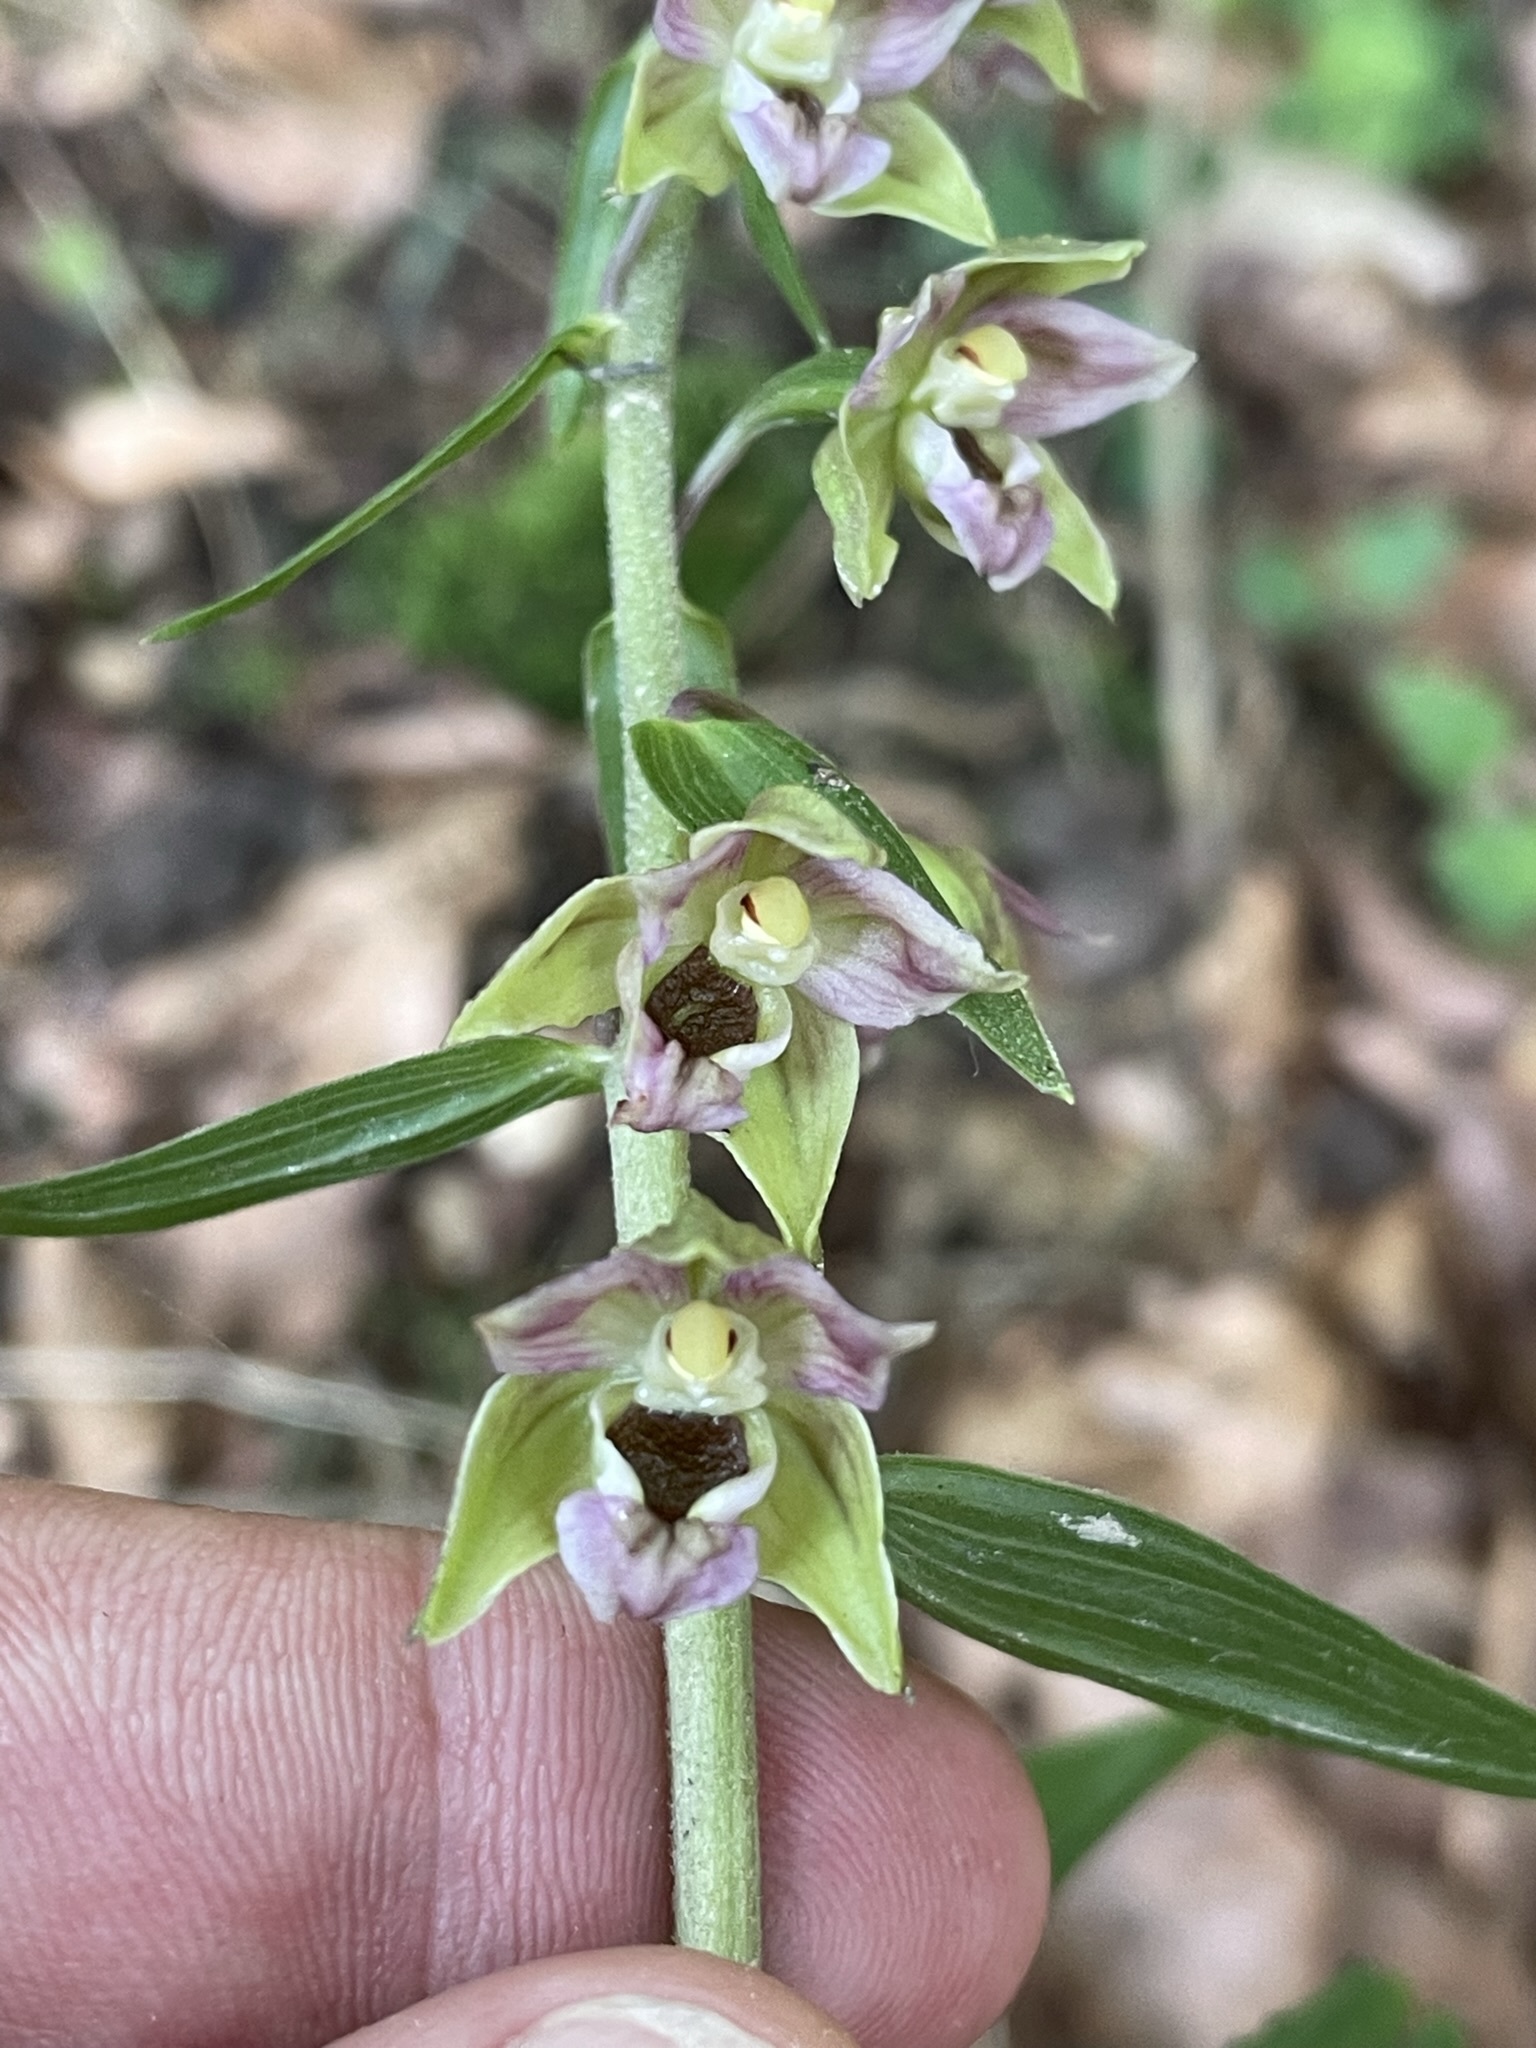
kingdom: Plantae
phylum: Tracheophyta
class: Liliopsida
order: Asparagales
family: Orchidaceae
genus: Epipactis
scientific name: Epipactis helleborine
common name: Broad-leaved helleborine
